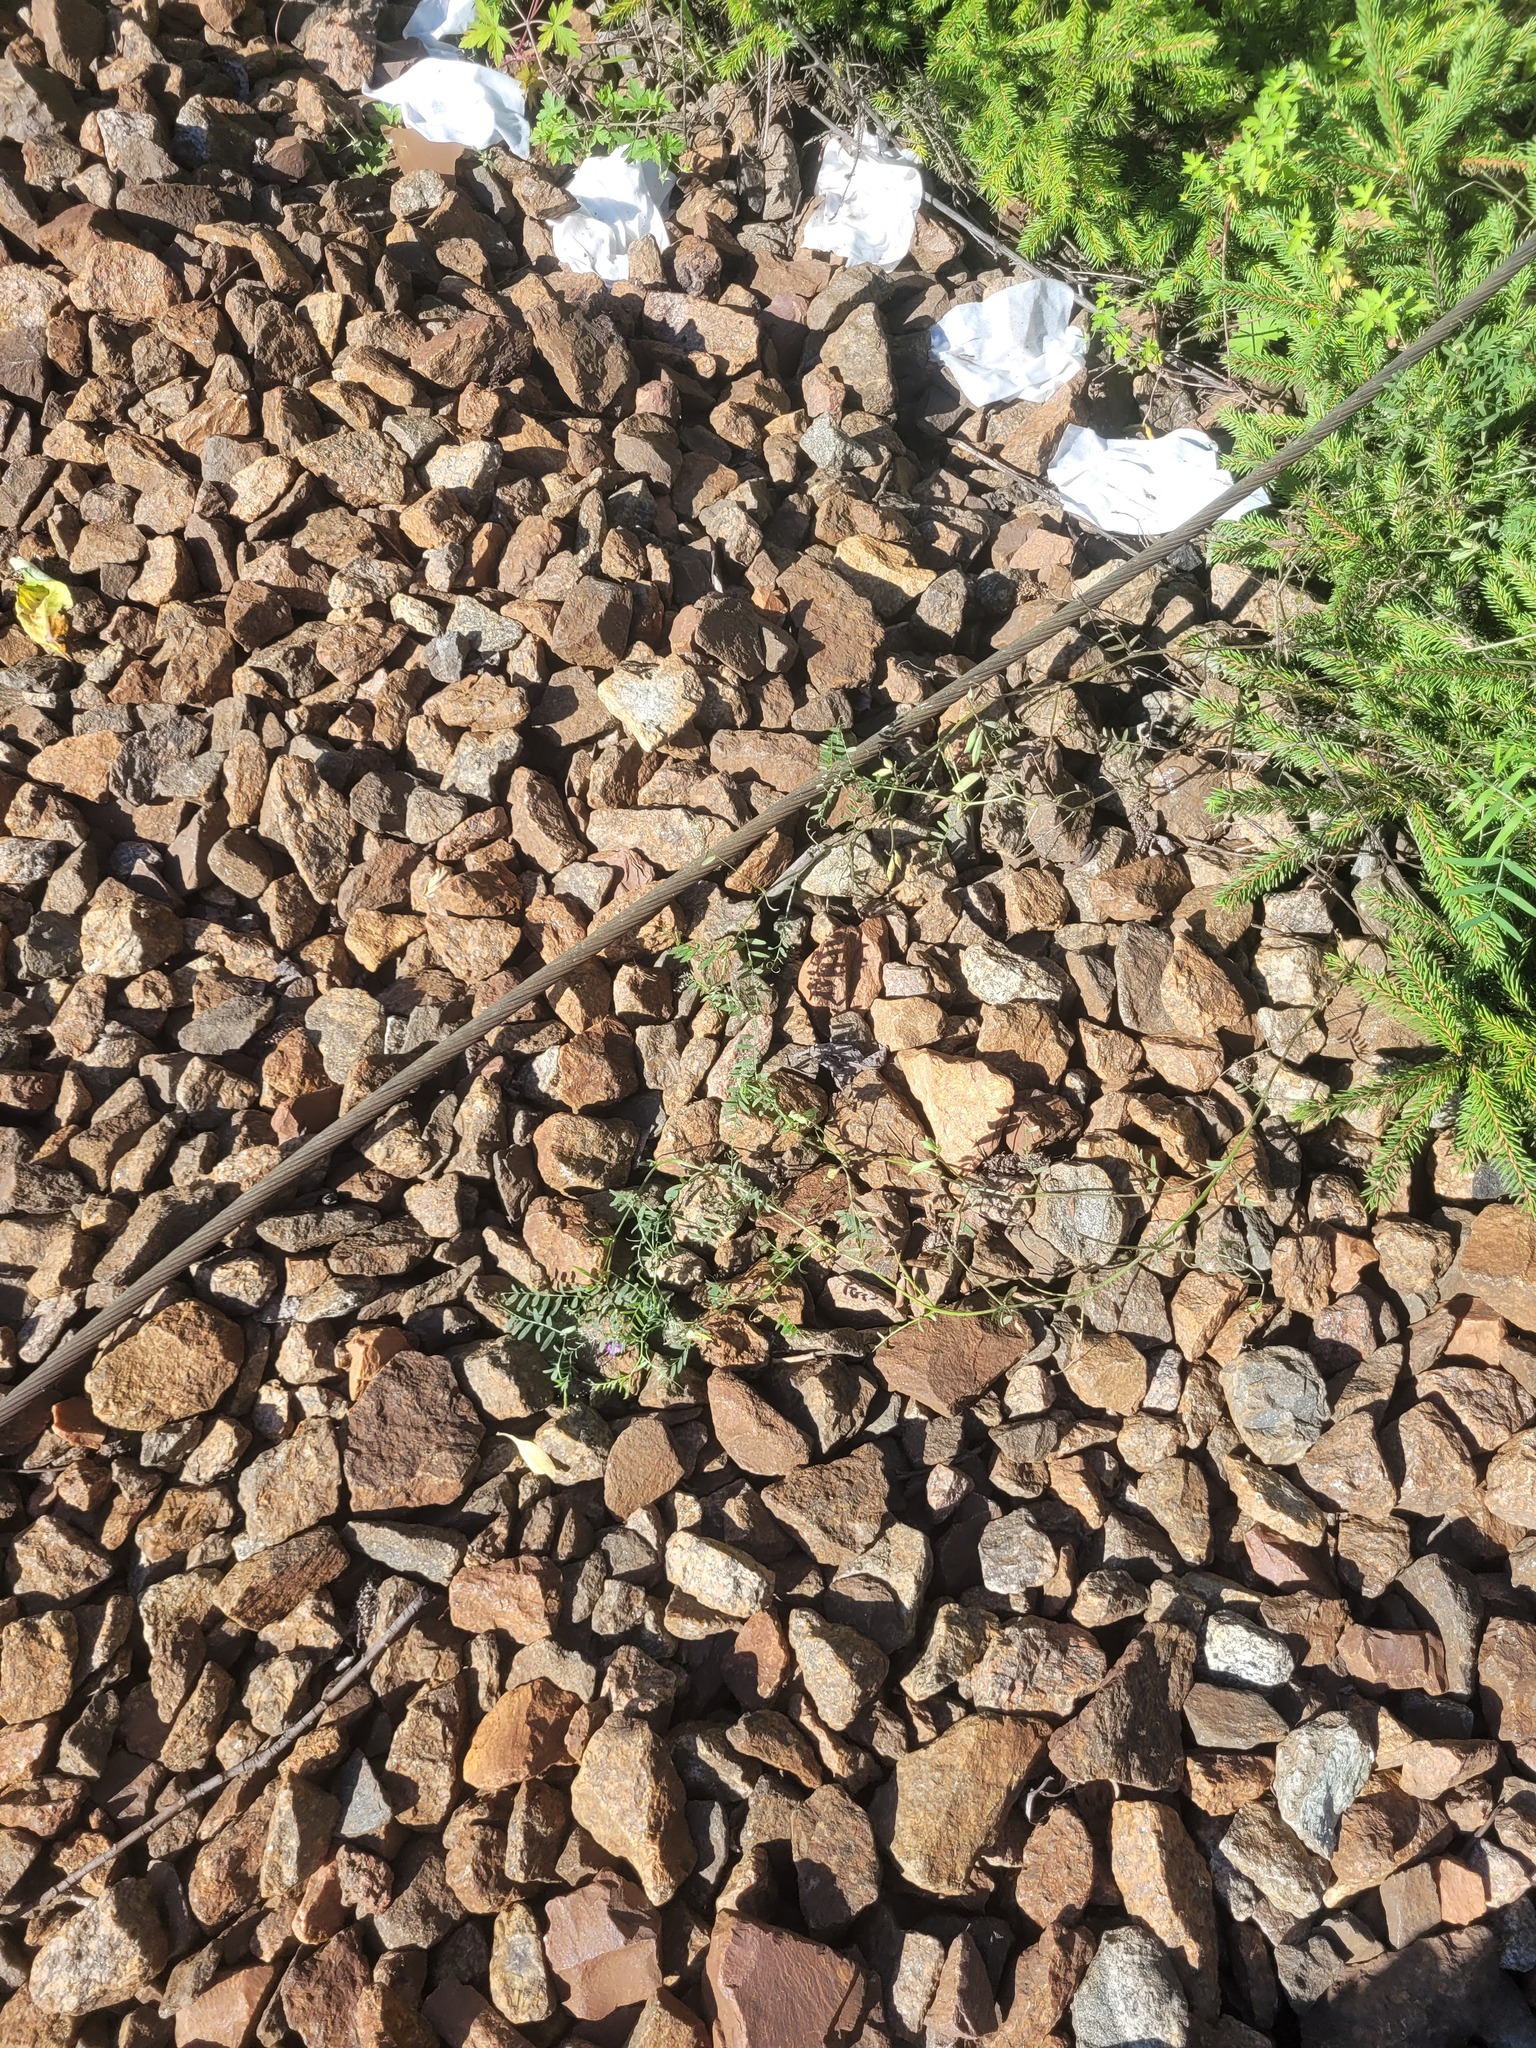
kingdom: Plantae
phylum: Tracheophyta
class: Magnoliopsida
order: Fabales
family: Fabaceae
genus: Vicia
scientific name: Vicia cracca
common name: Bird vetch
